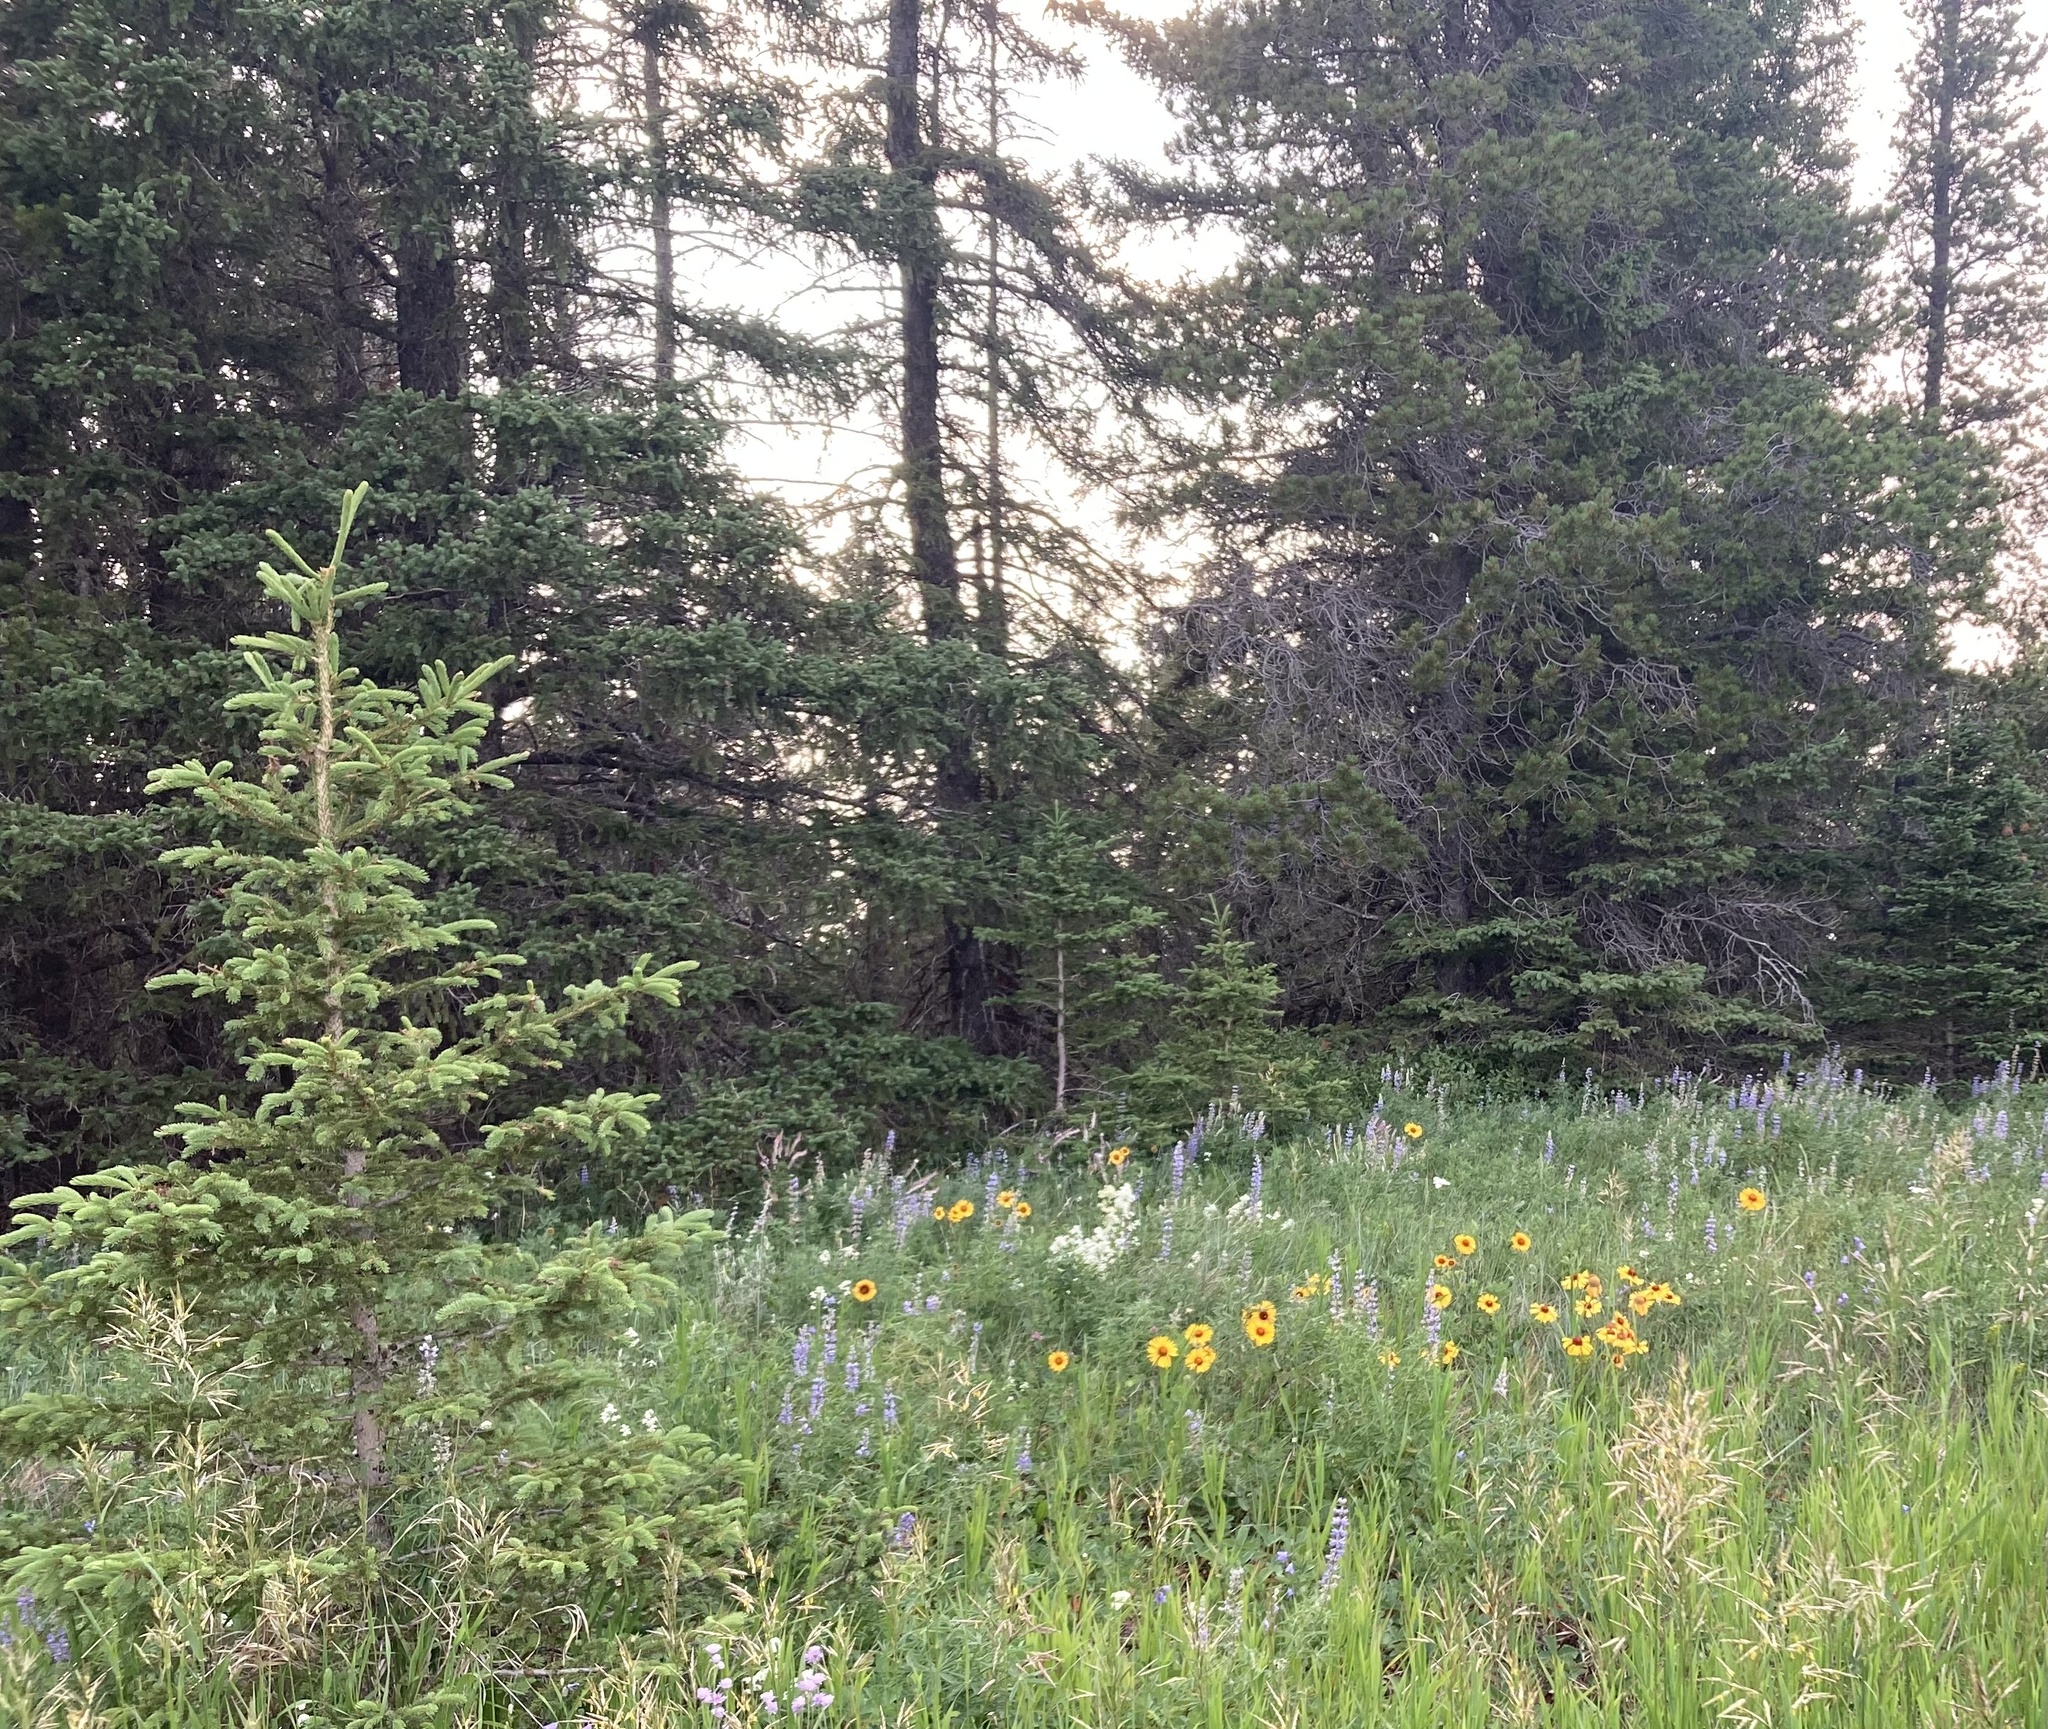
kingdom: Plantae
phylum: Tracheophyta
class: Magnoliopsida
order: Asterales
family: Asteraceae
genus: Gaillardia
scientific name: Gaillardia aristata
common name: Blanket-flower
